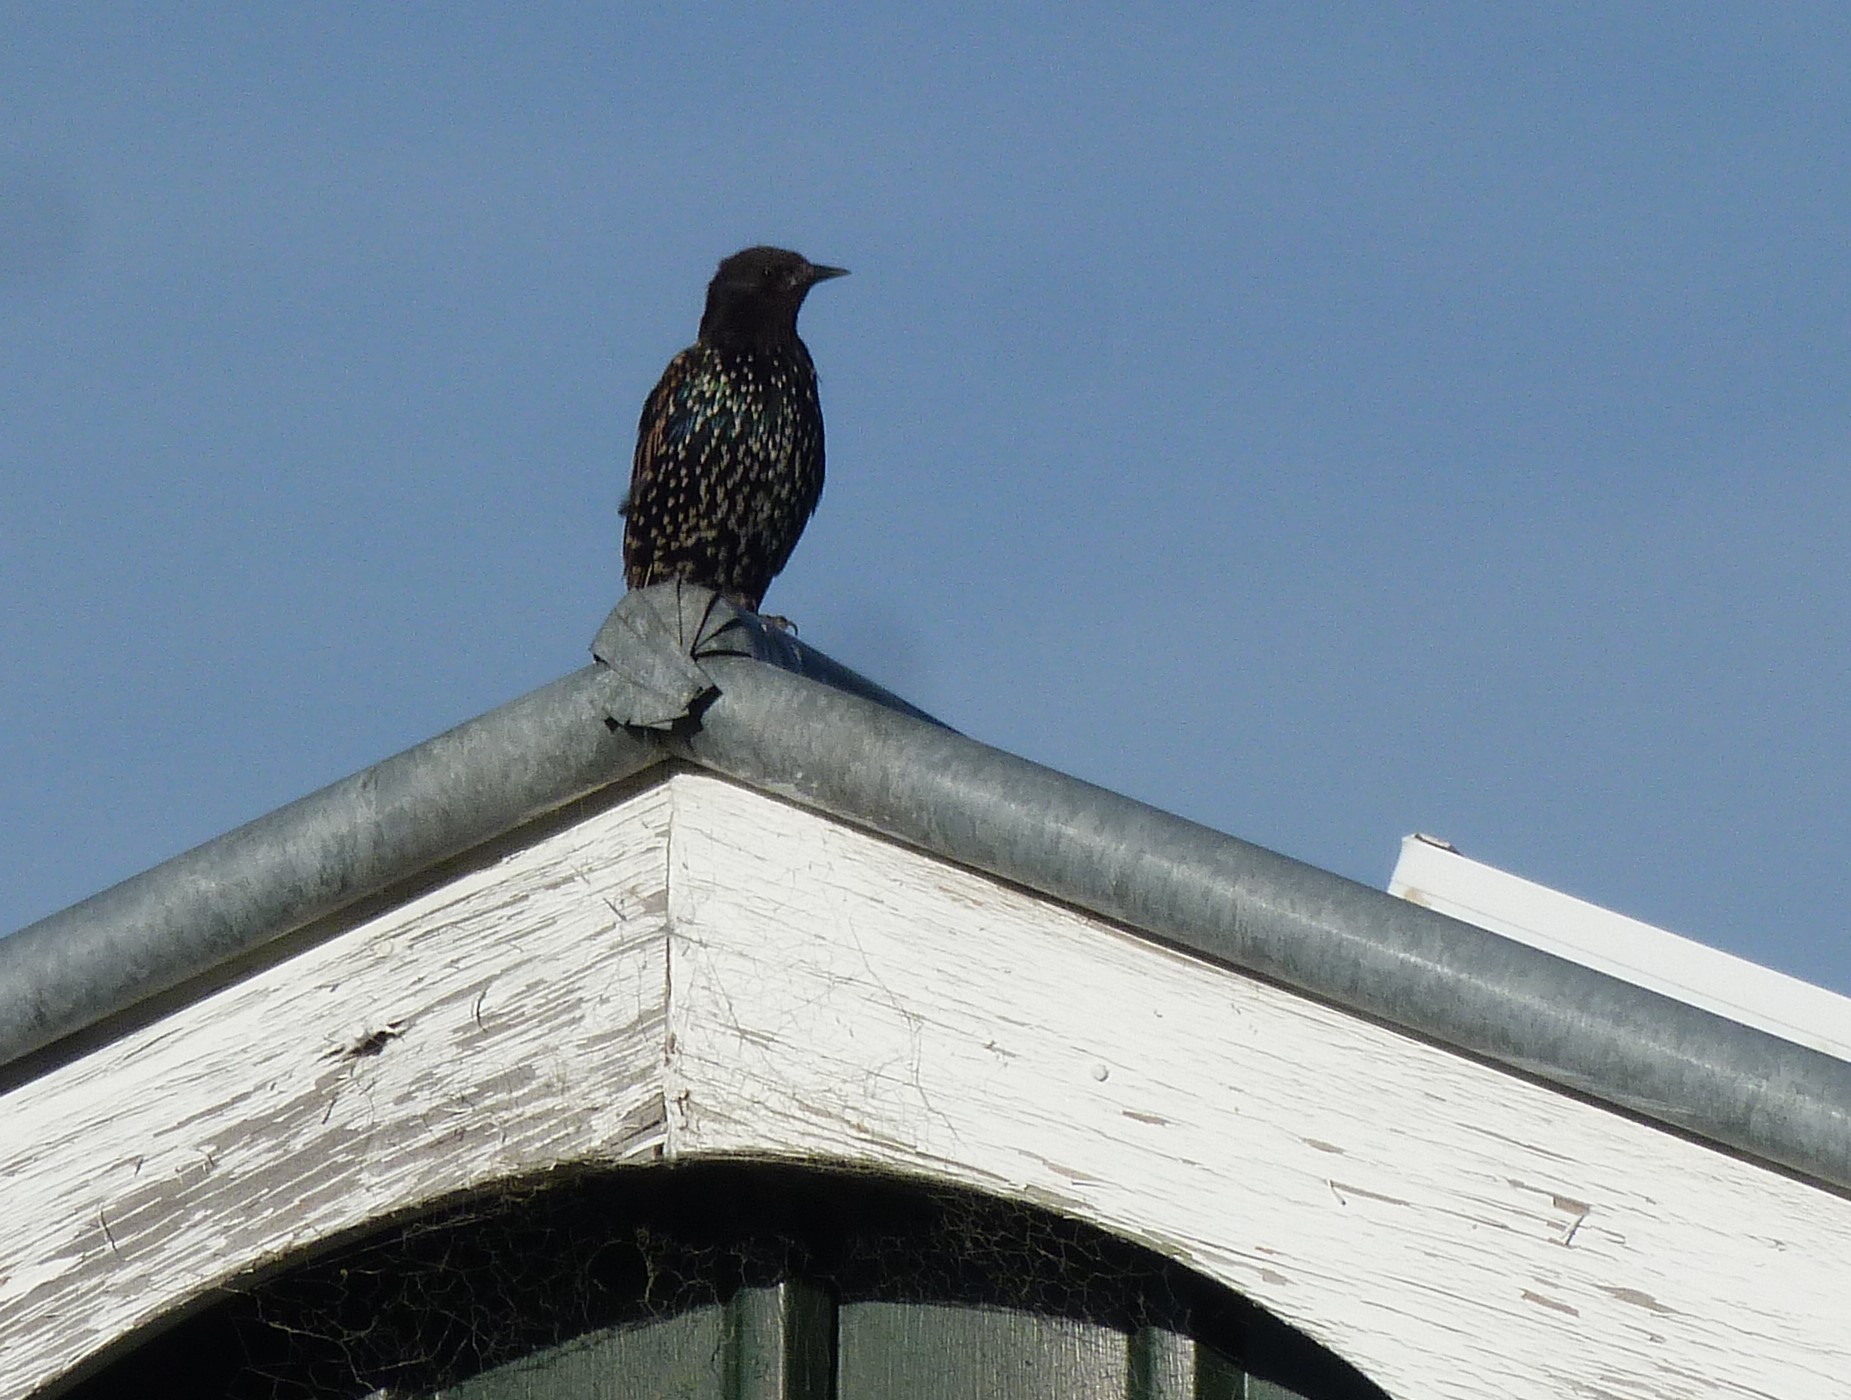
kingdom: Animalia
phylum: Chordata
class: Aves
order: Passeriformes
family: Sturnidae
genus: Sturnus
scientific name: Sturnus vulgaris
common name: Common starling
